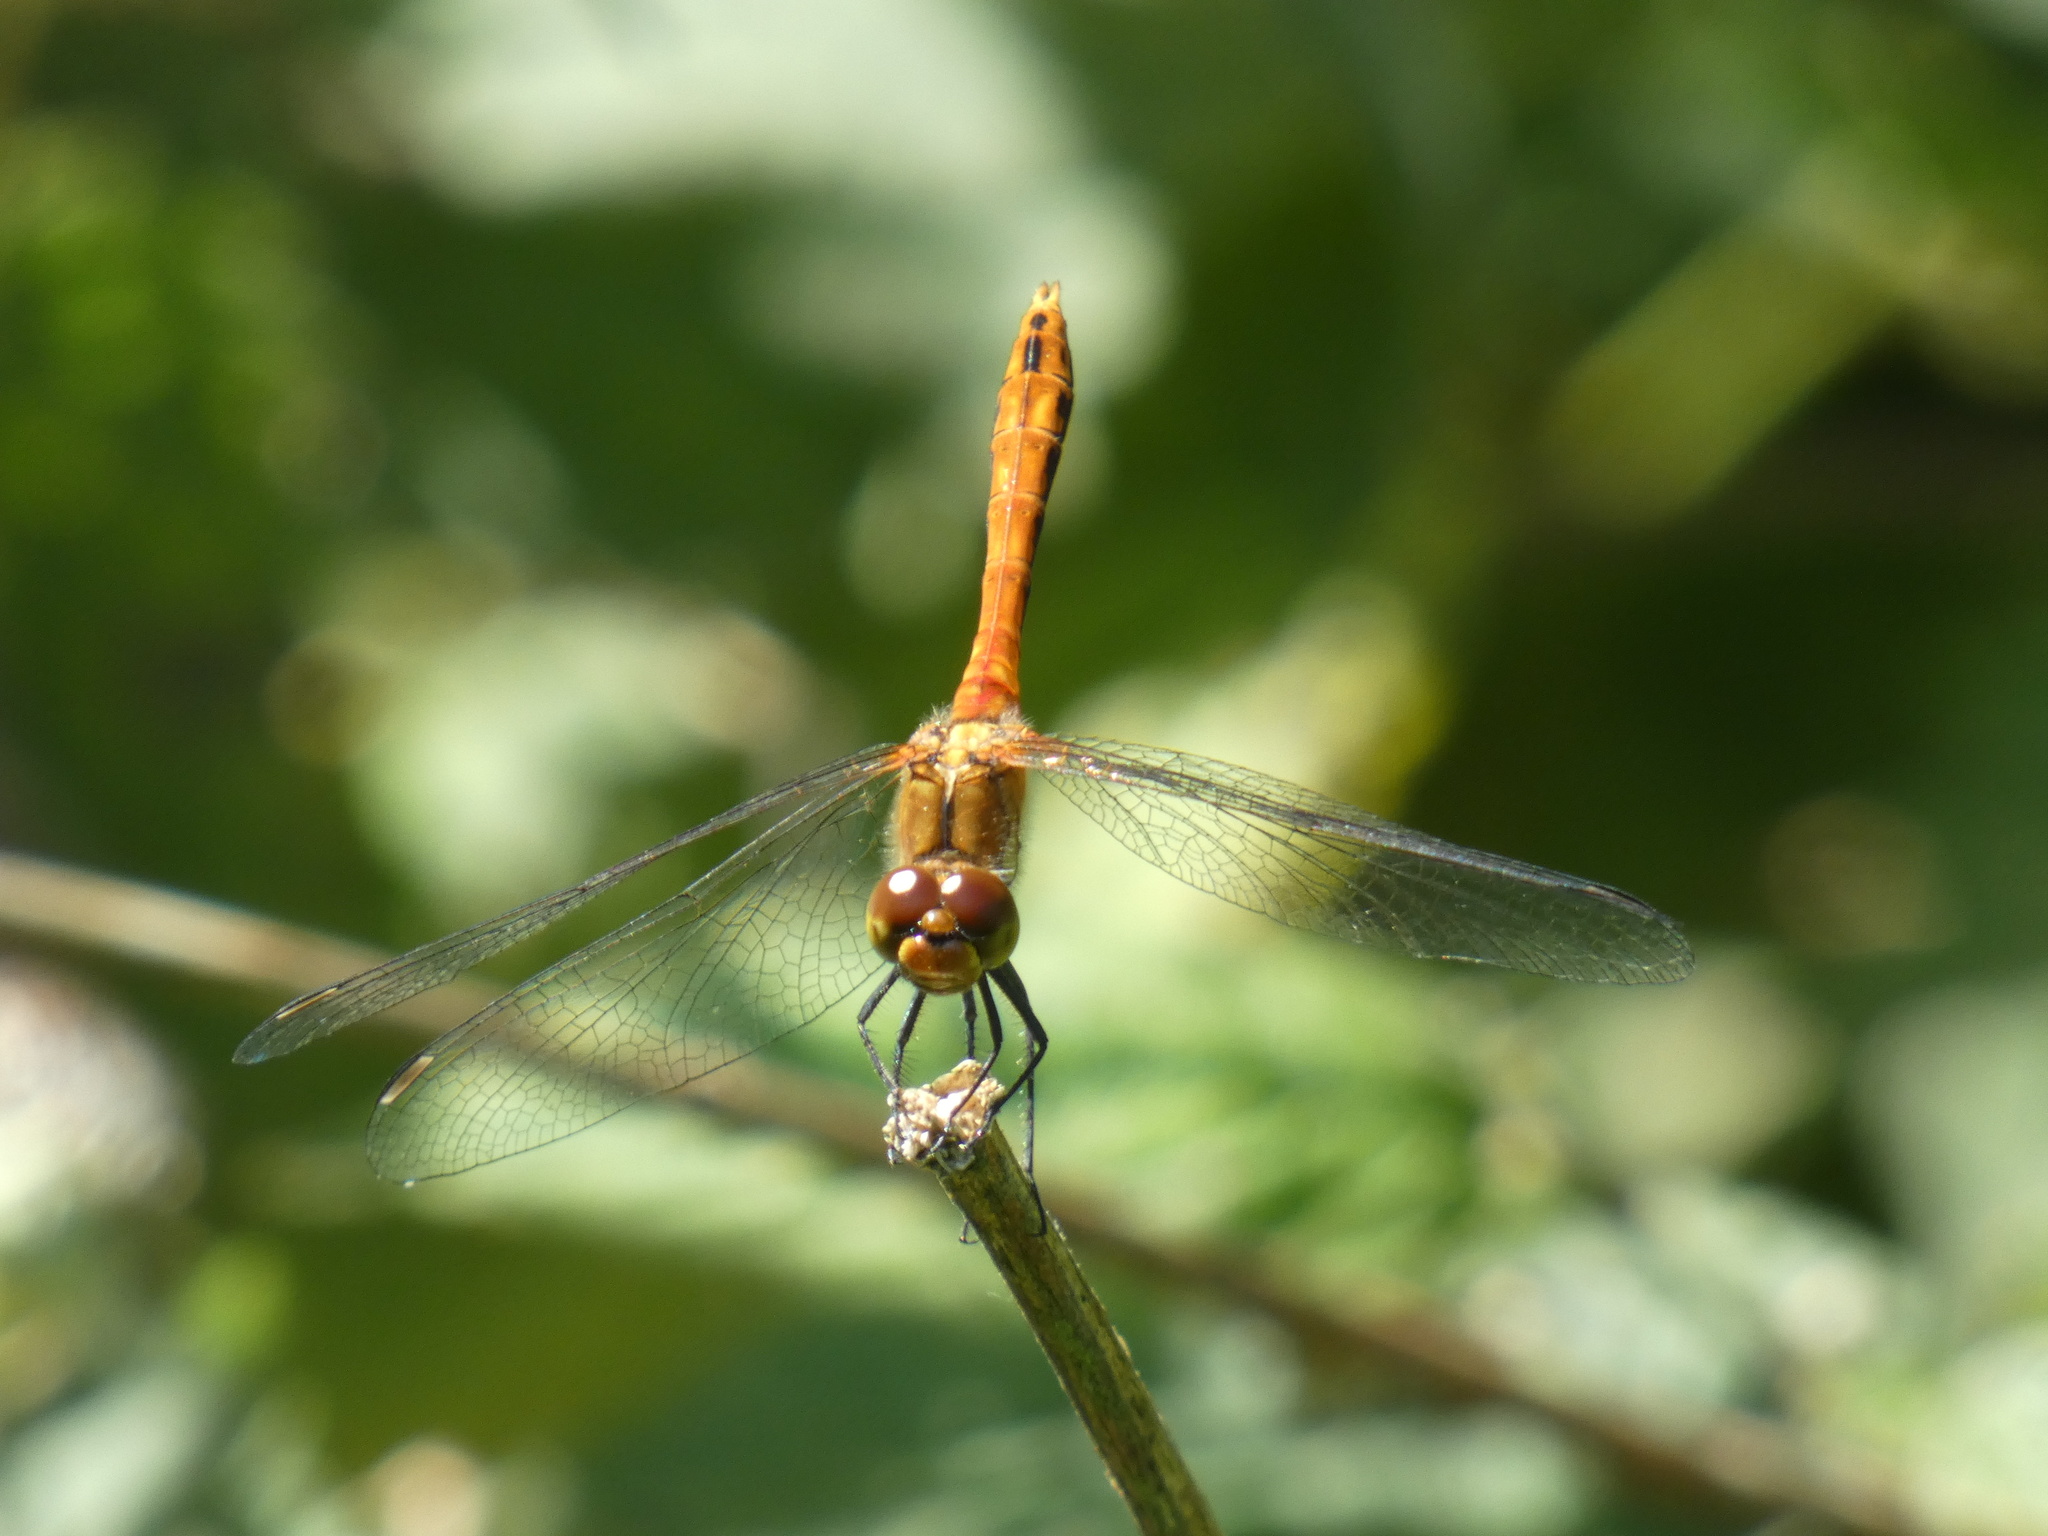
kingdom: Animalia
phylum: Arthropoda
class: Insecta
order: Odonata
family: Libellulidae
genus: Sympetrum
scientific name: Sympetrum sanguineum
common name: Ruddy darter
